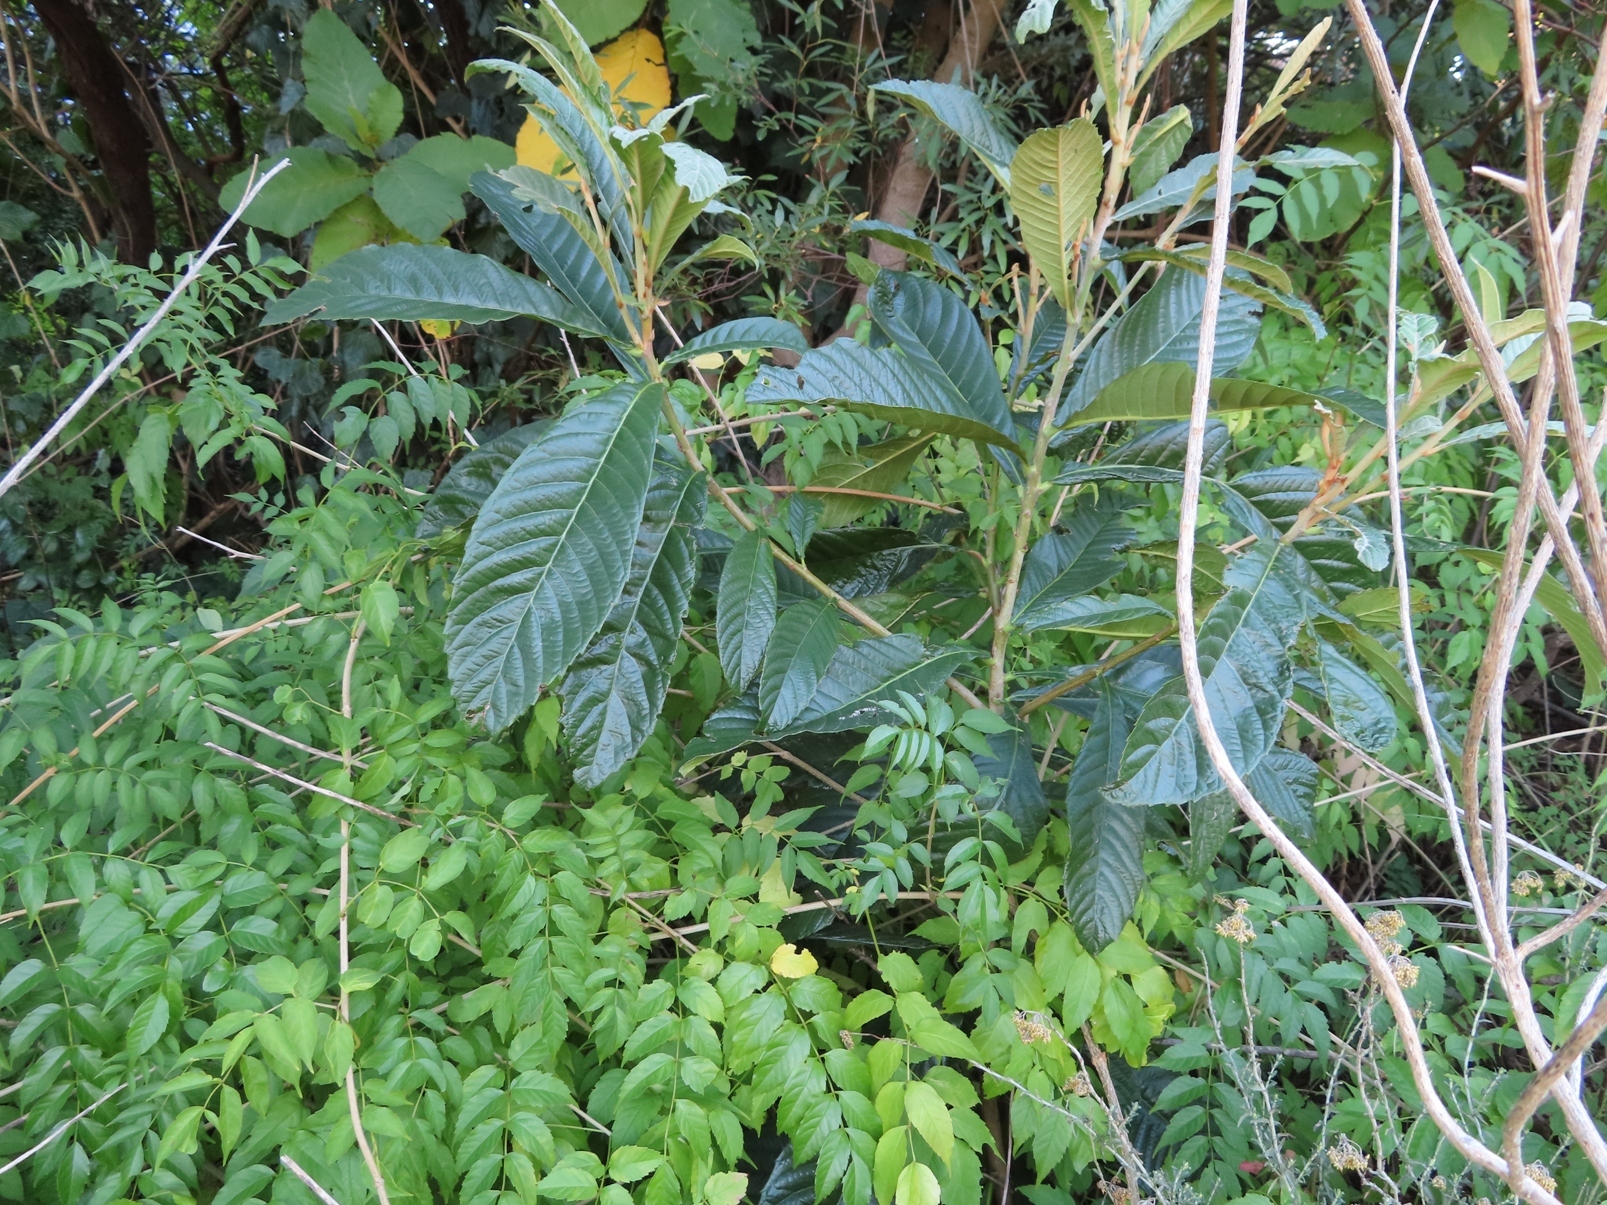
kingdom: Plantae
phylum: Tracheophyta
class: Magnoliopsida
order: Rosales
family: Rosaceae
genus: Rhaphiolepis
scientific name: Rhaphiolepis bibas
